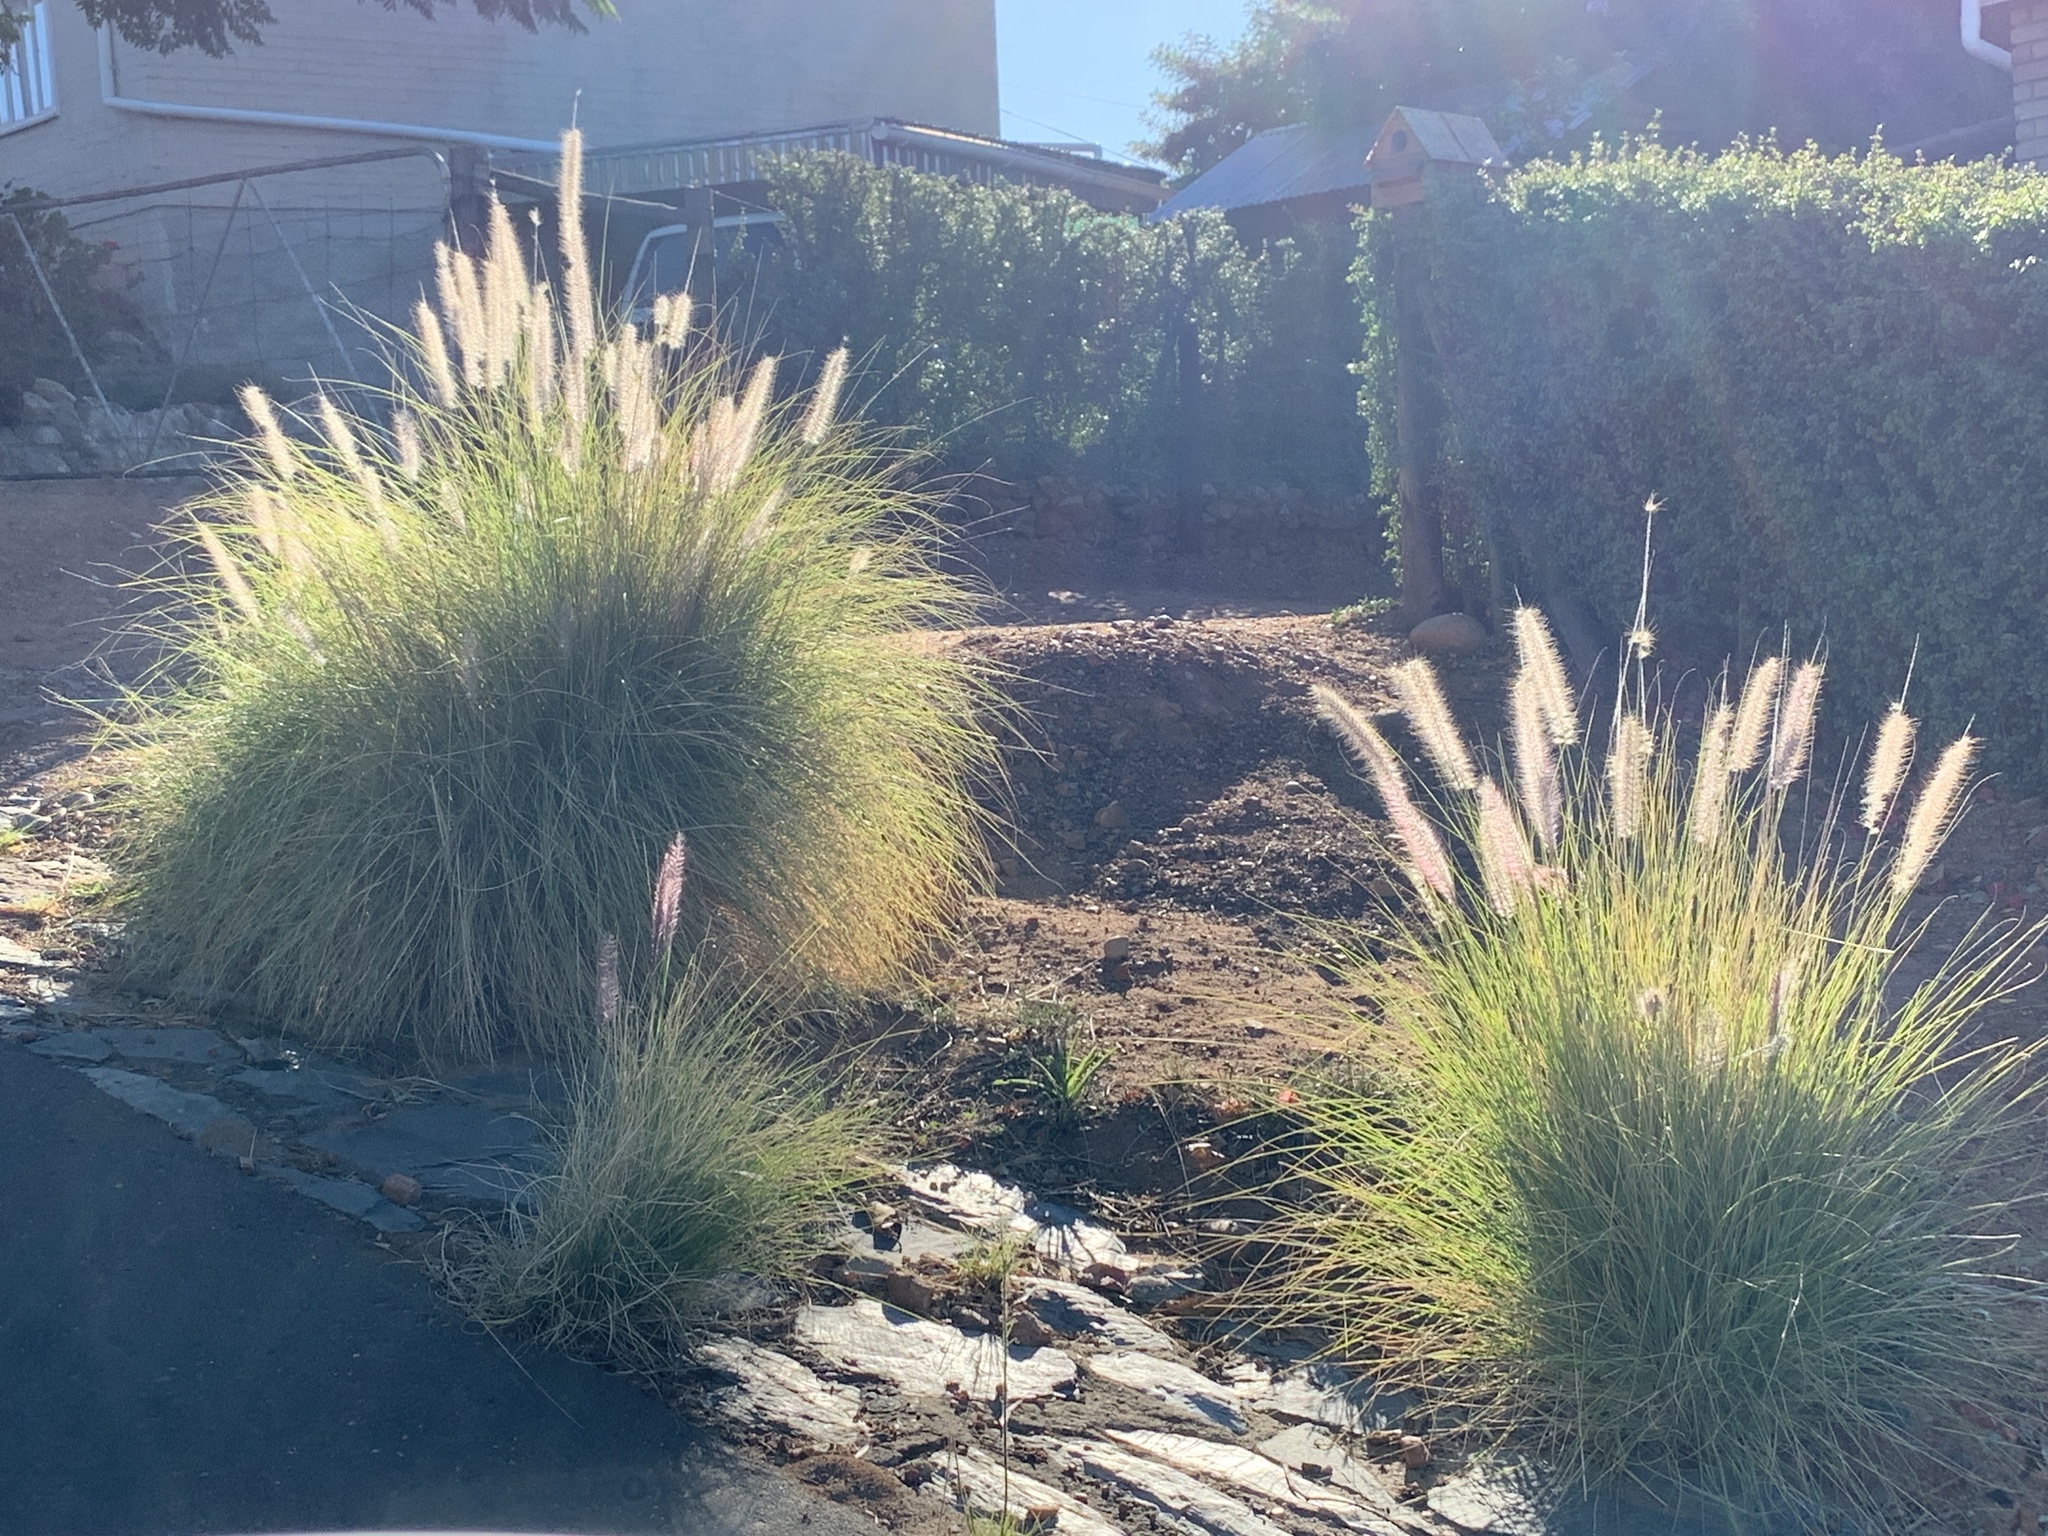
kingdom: Plantae
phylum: Tracheophyta
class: Liliopsida
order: Poales
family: Poaceae
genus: Cenchrus
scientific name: Cenchrus setaceus
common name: Crimson fountaingrass
